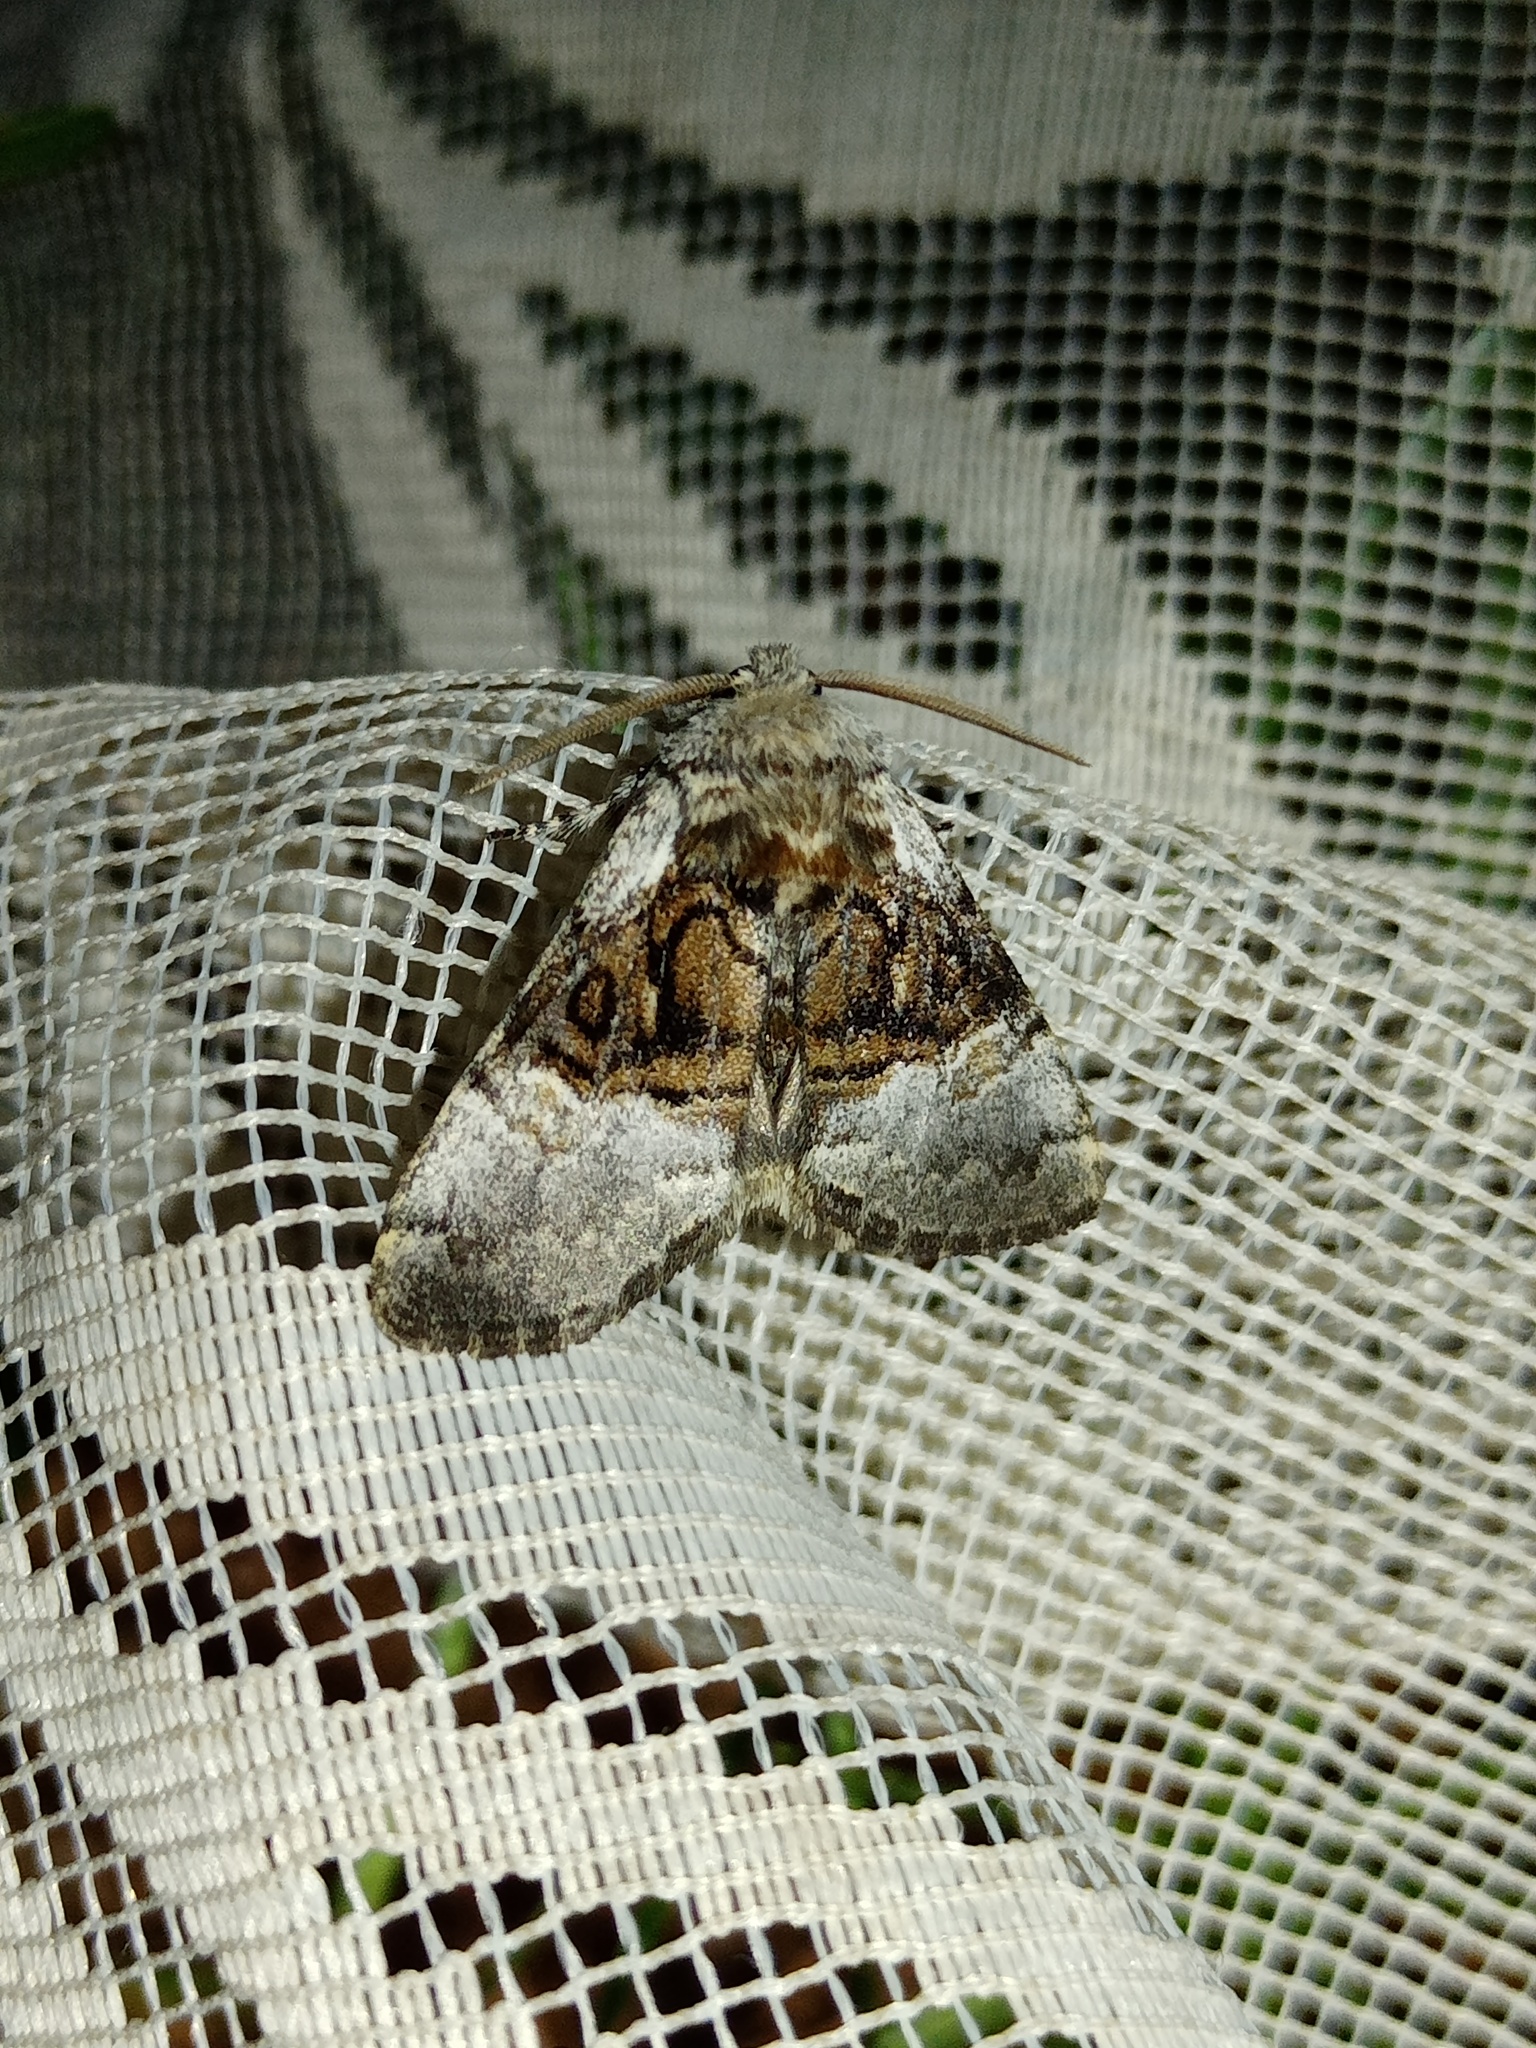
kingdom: Animalia
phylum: Arthropoda
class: Insecta
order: Lepidoptera
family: Noctuidae
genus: Colocasia
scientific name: Colocasia coryli
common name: Nut-tree tussock
